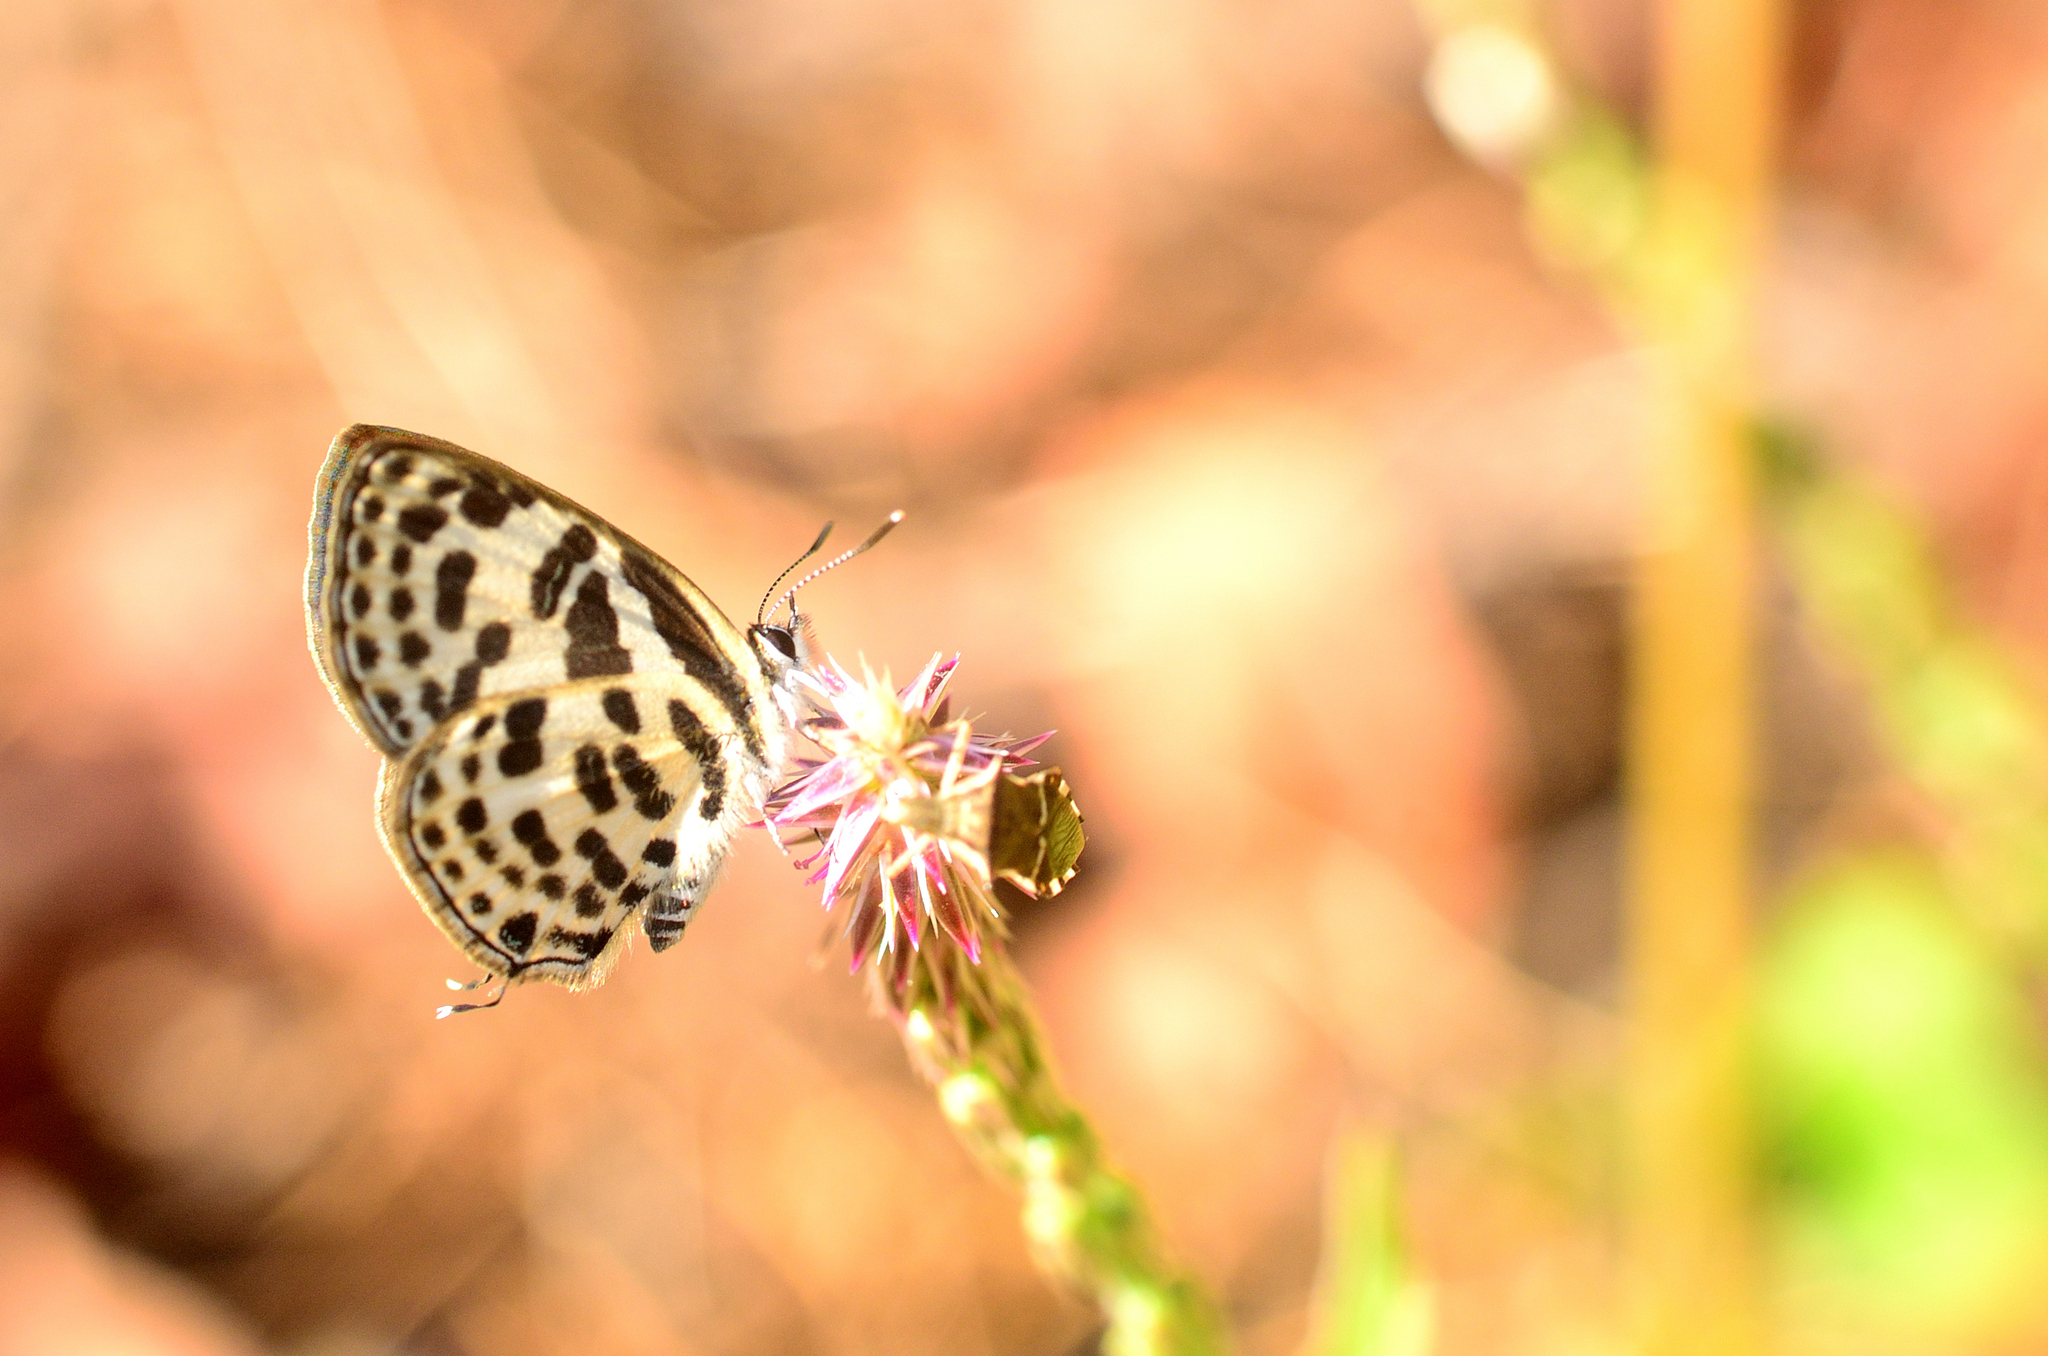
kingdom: Animalia
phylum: Arthropoda
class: Insecta
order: Lepidoptera
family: Lycaenidae
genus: Tarucus
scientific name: Tarucus
